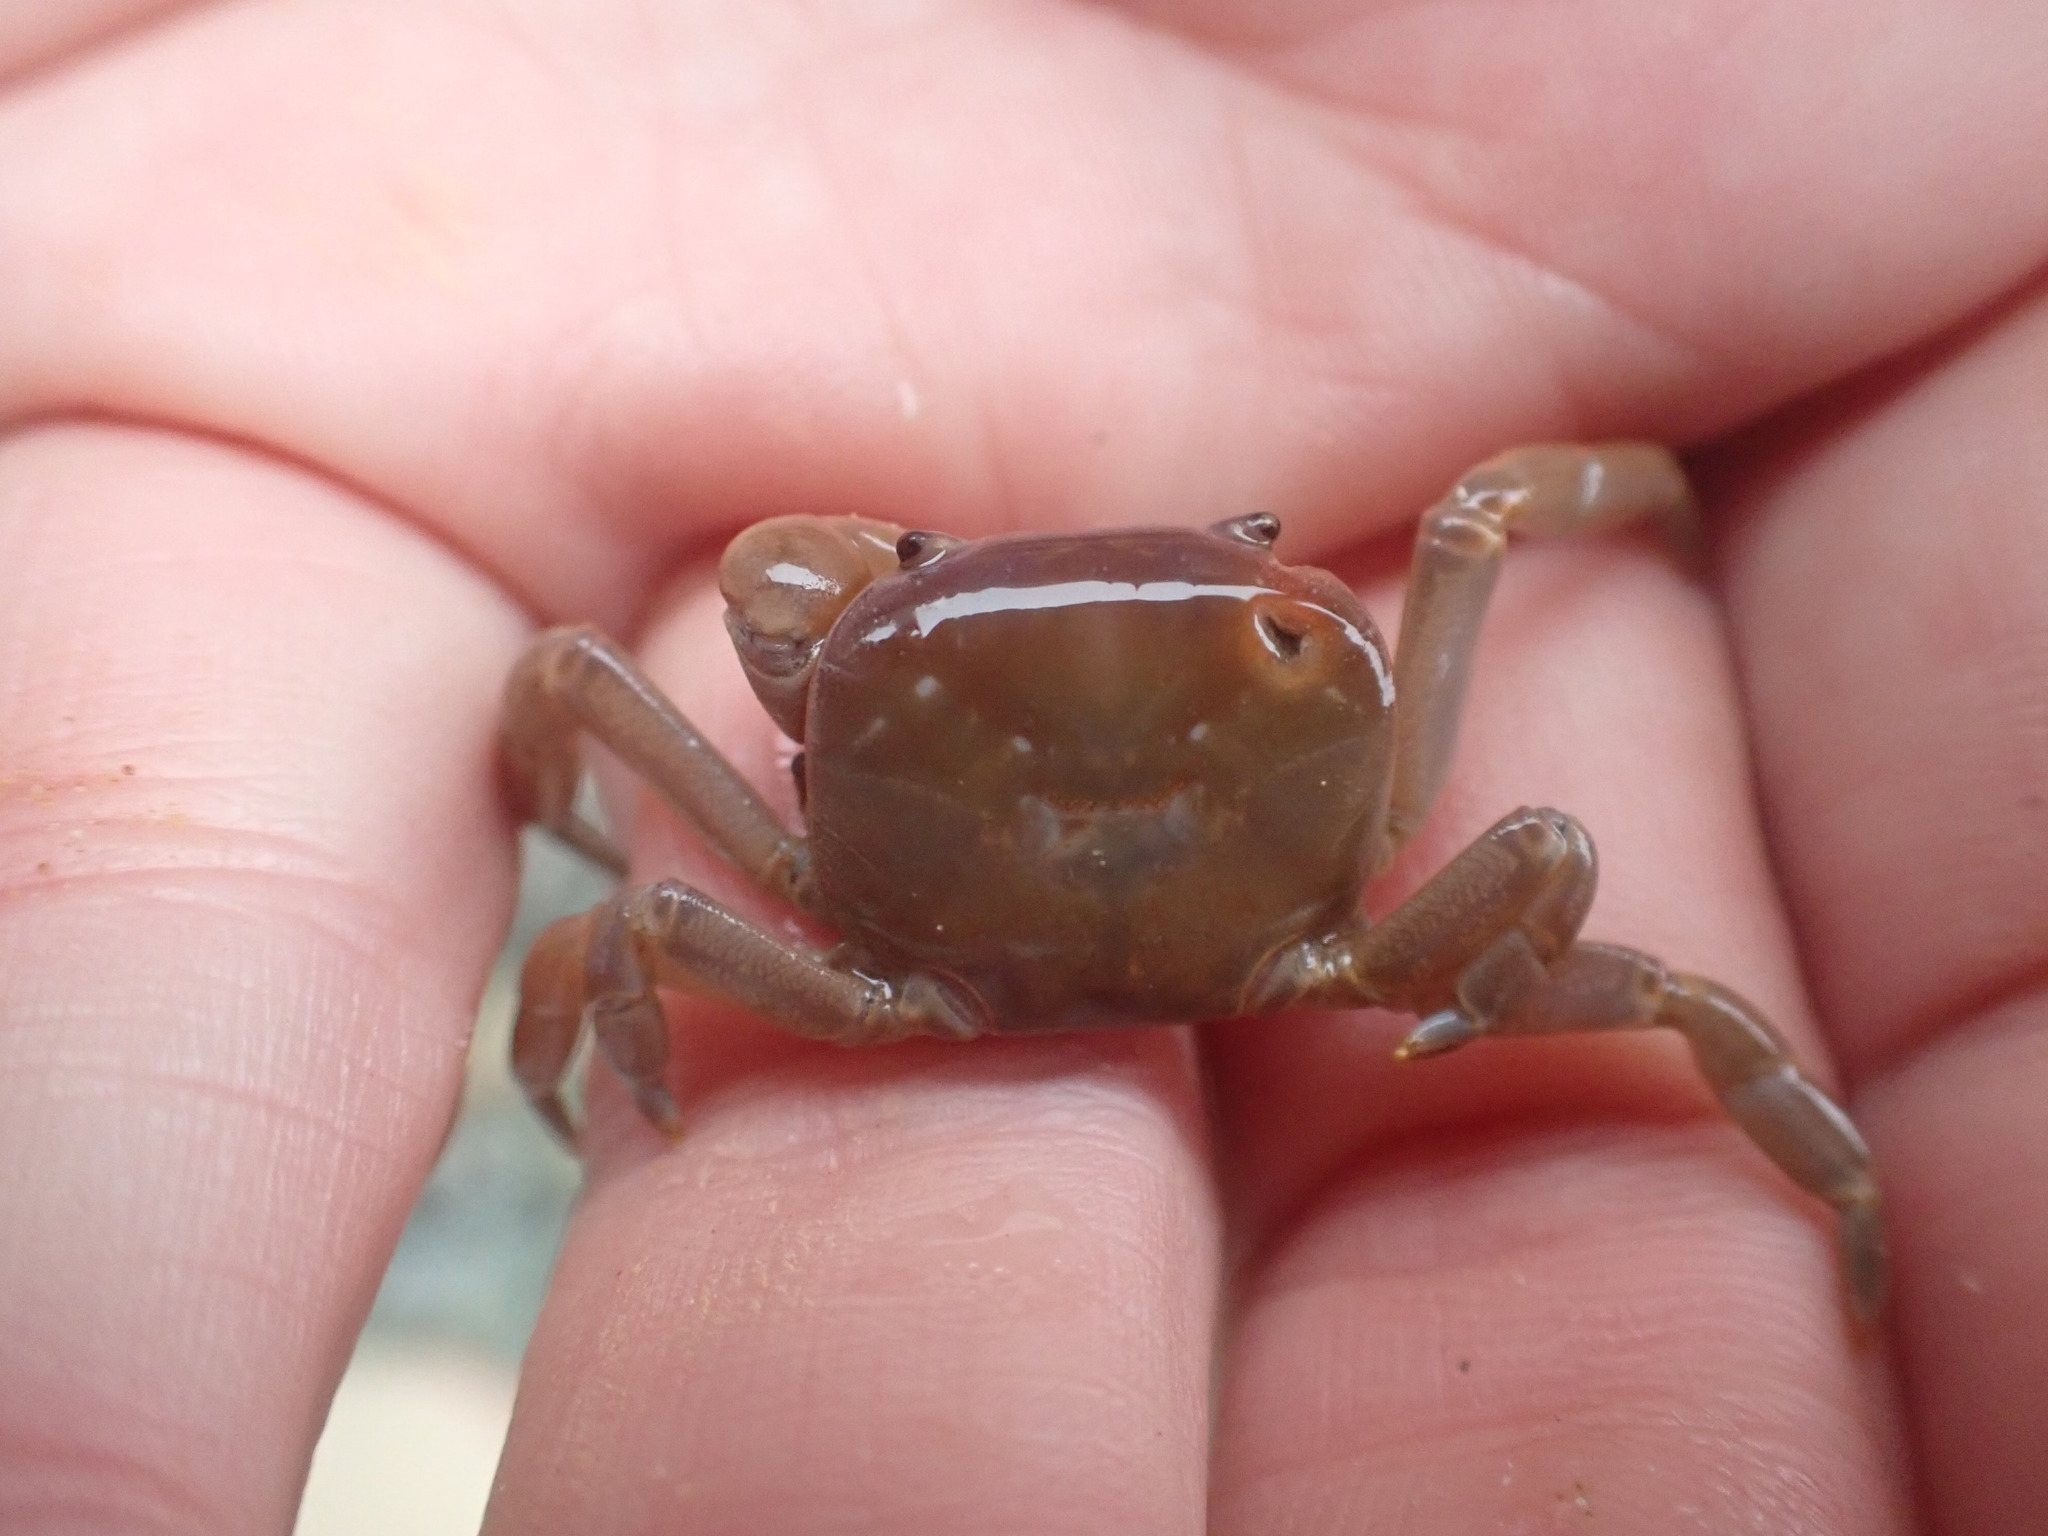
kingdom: Animalia
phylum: Arthropoda
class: Malacostraca
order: Decapoda
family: Varunidae
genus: Cyclograpsus
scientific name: Cyclograpsus insularum
